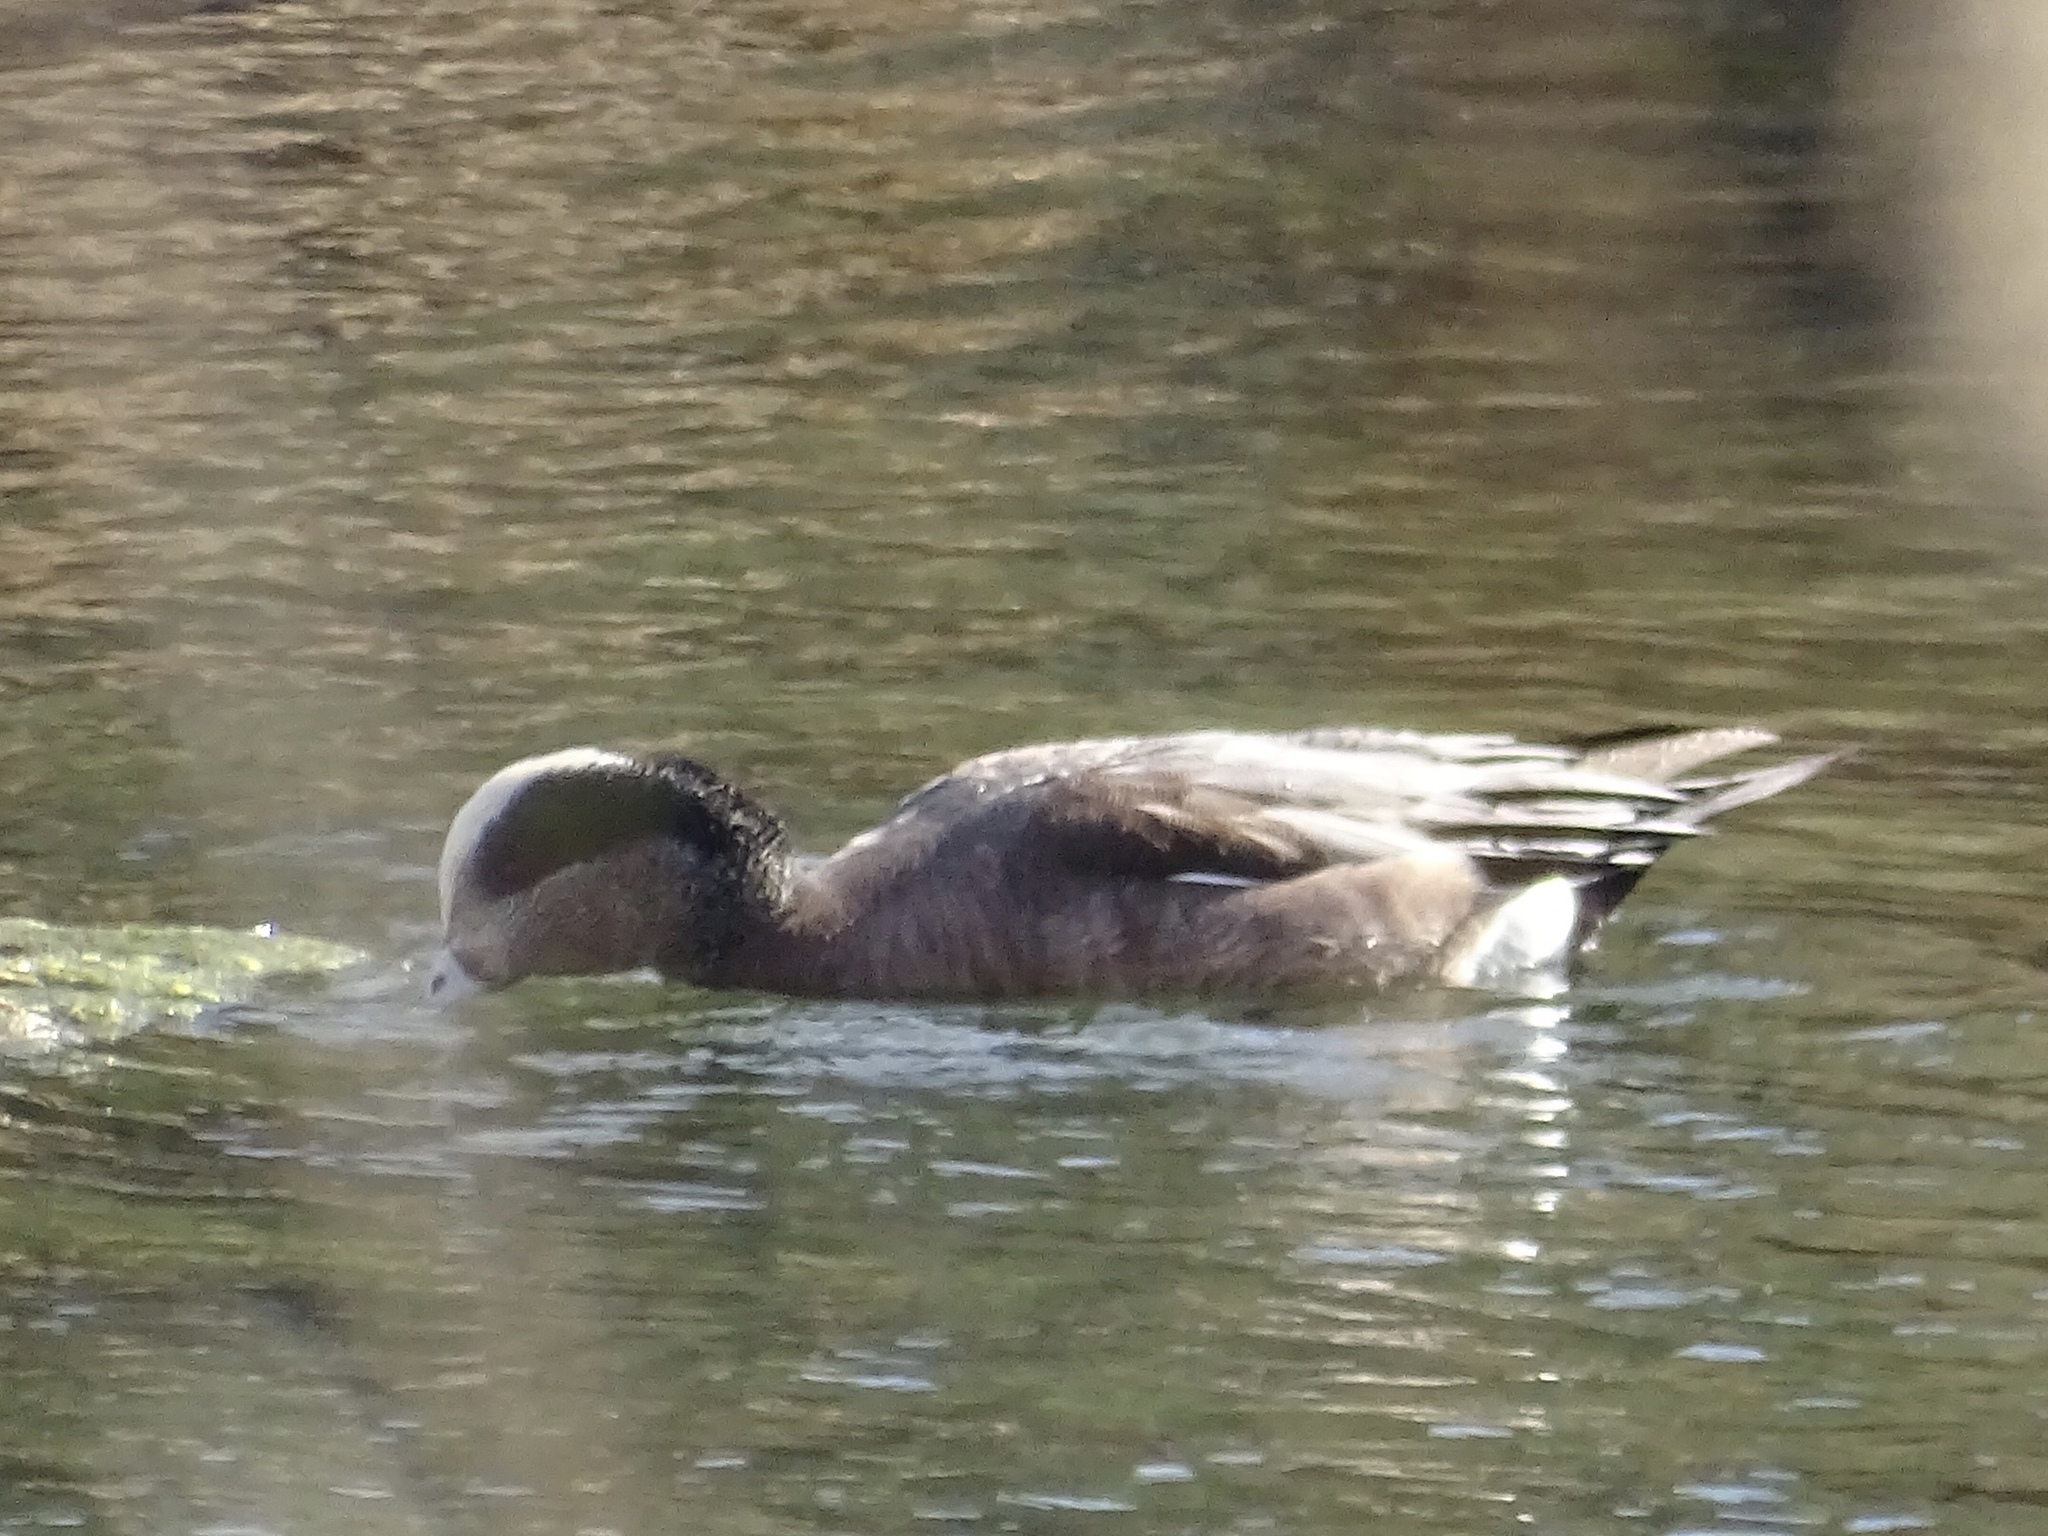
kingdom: Animalia
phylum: Chordata
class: Aves
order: Anseriformes
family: Anatidae
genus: Mareca
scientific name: Mareca americana
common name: American wigeon
